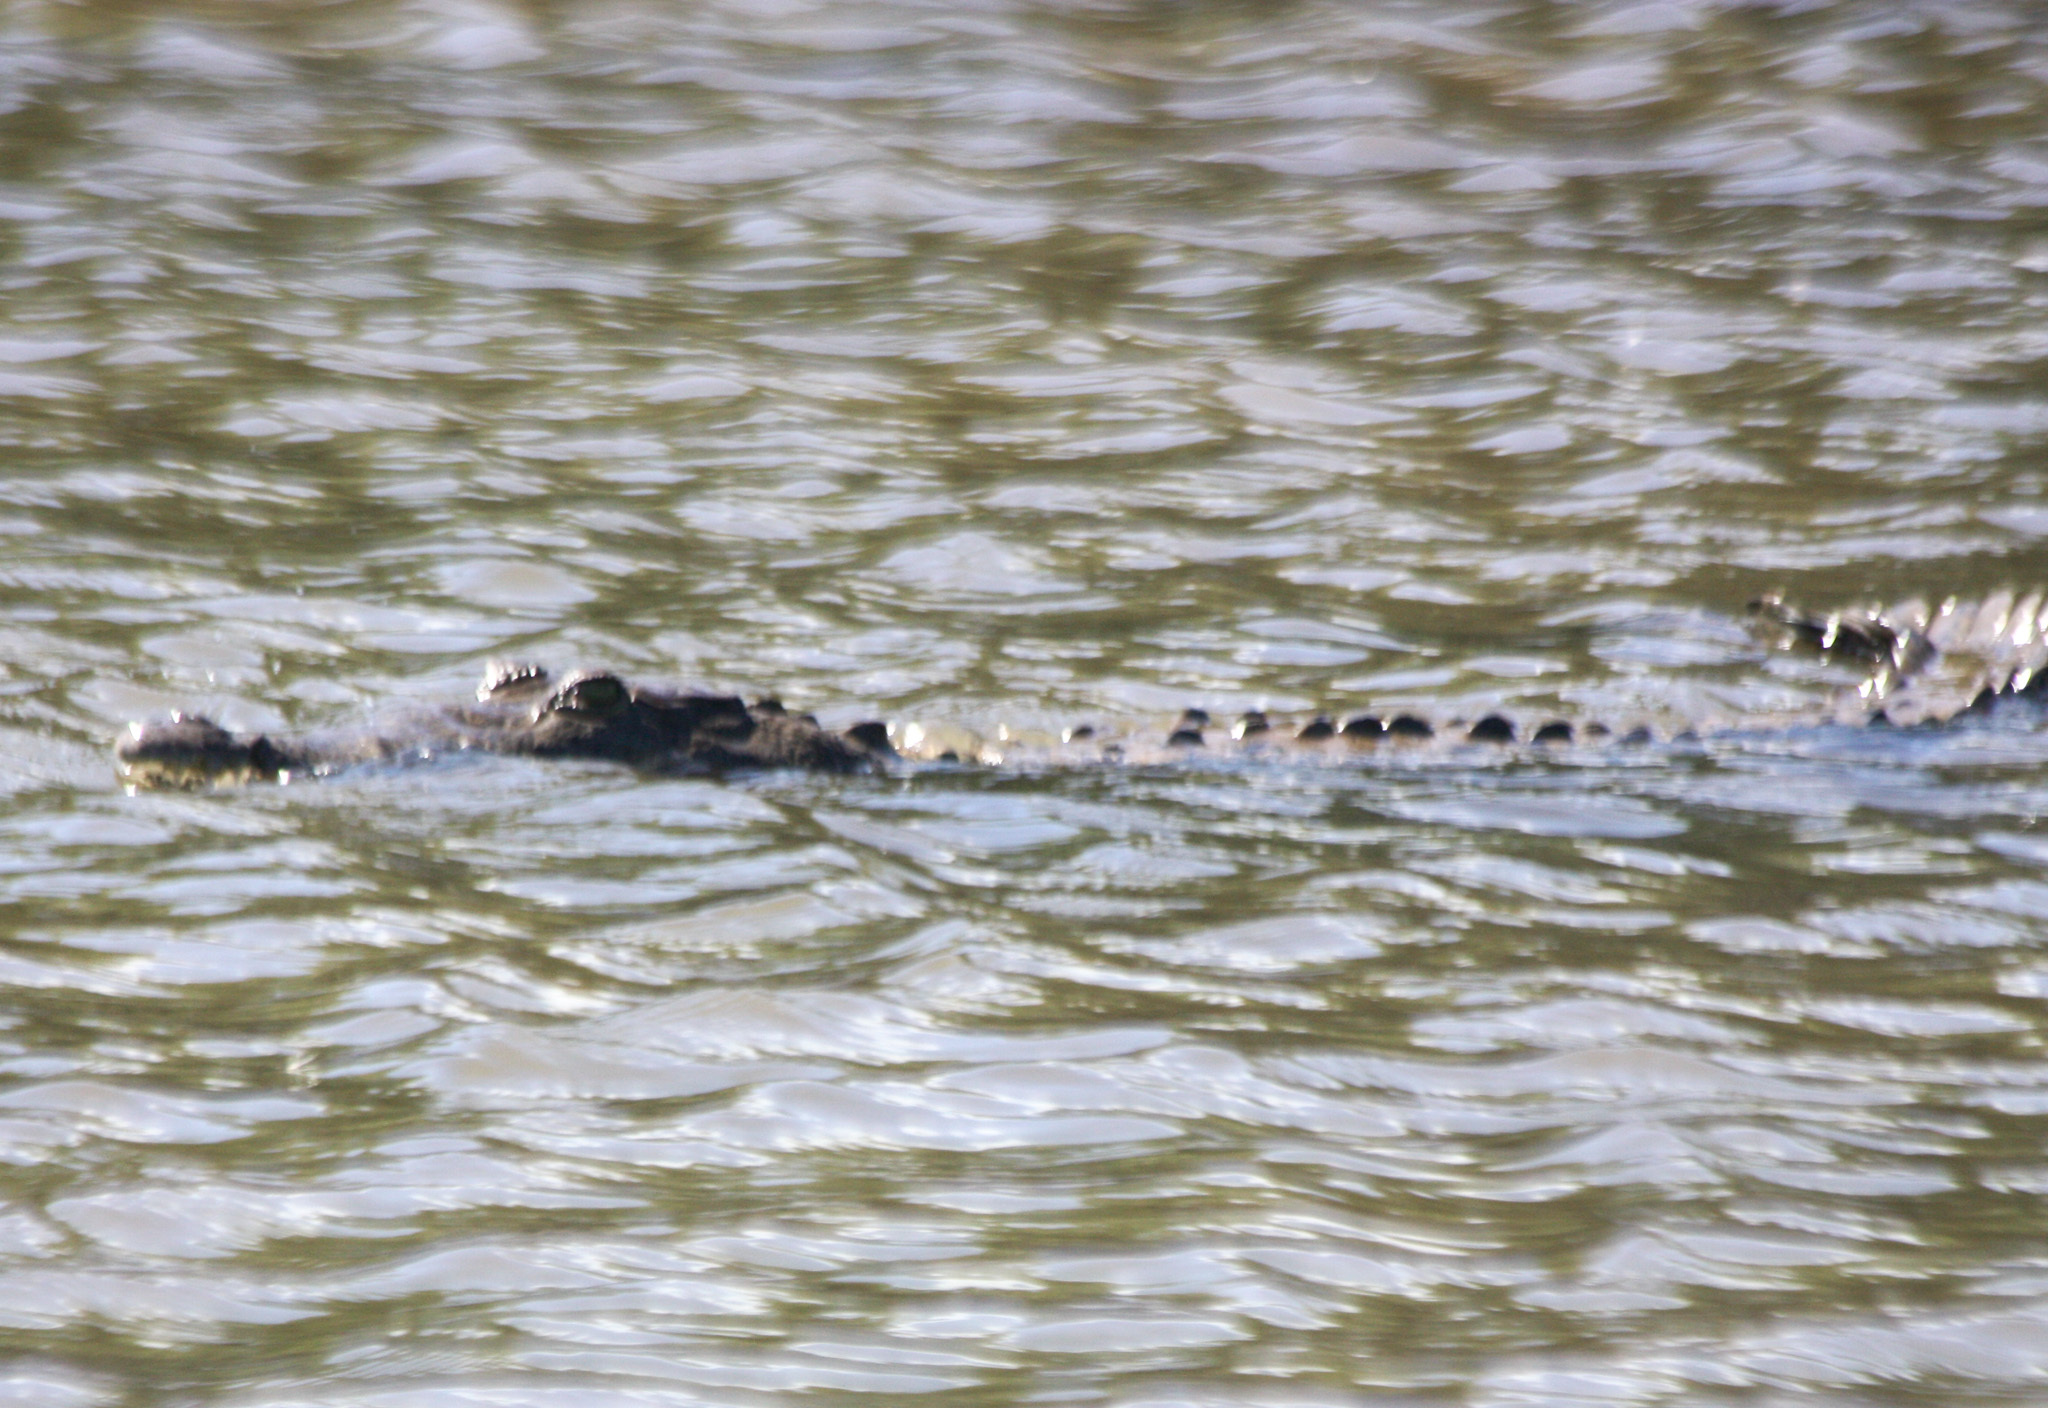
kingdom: Animalia
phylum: Chordata
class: Crocodylia
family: Crocodylidae
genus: Crocodylus
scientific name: Crocodylus acutus
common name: American crocodile
